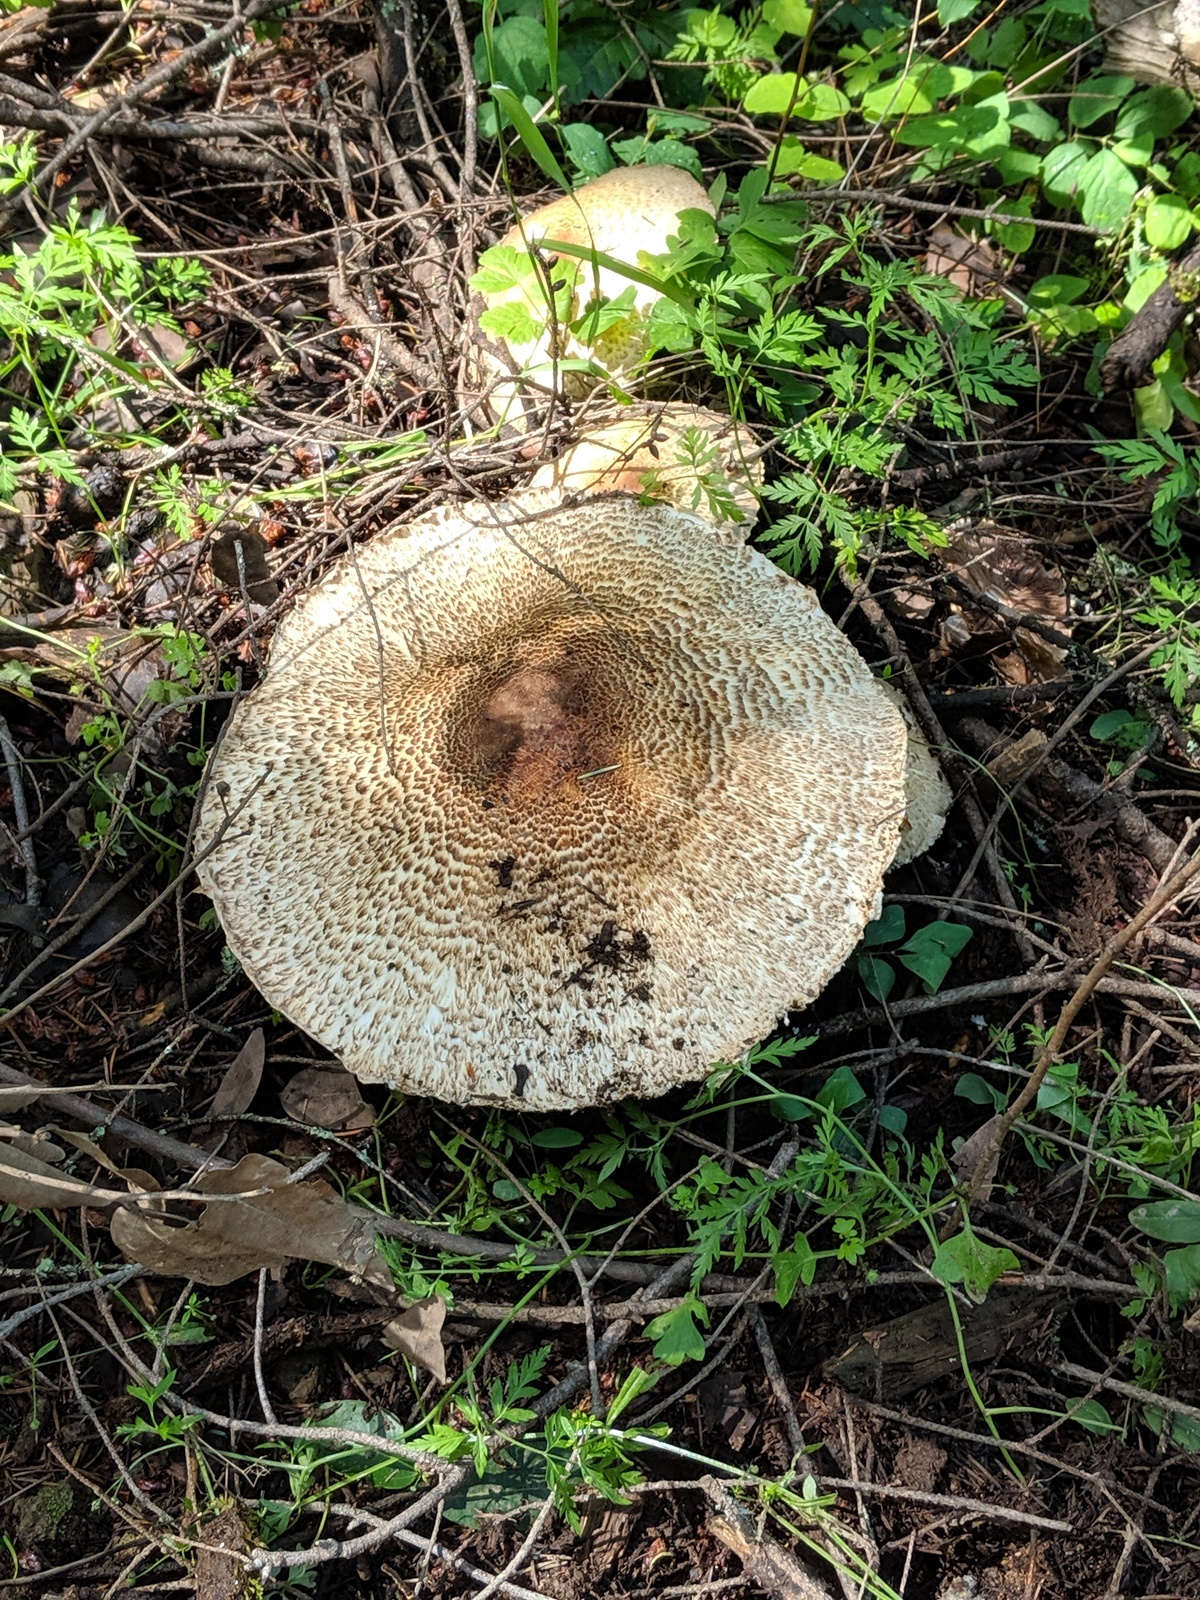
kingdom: Fungi
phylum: Basidiomycota
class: Agaricomycetes
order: Agaricales
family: Agaricaceae
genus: Agaricus
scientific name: Agaricus augustus
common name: Prince
